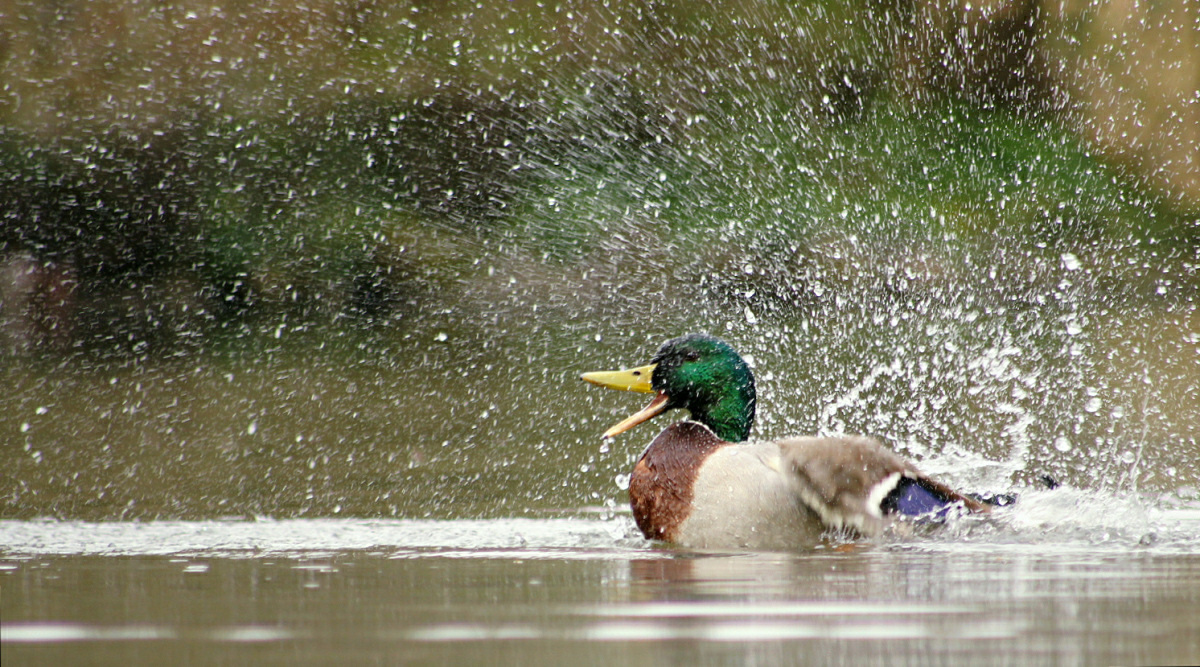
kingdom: Animalia
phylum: Chordata
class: Aves
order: Anseriformes
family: Anatidae
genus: Anas
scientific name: Anas platyrhynchos
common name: Mallard
